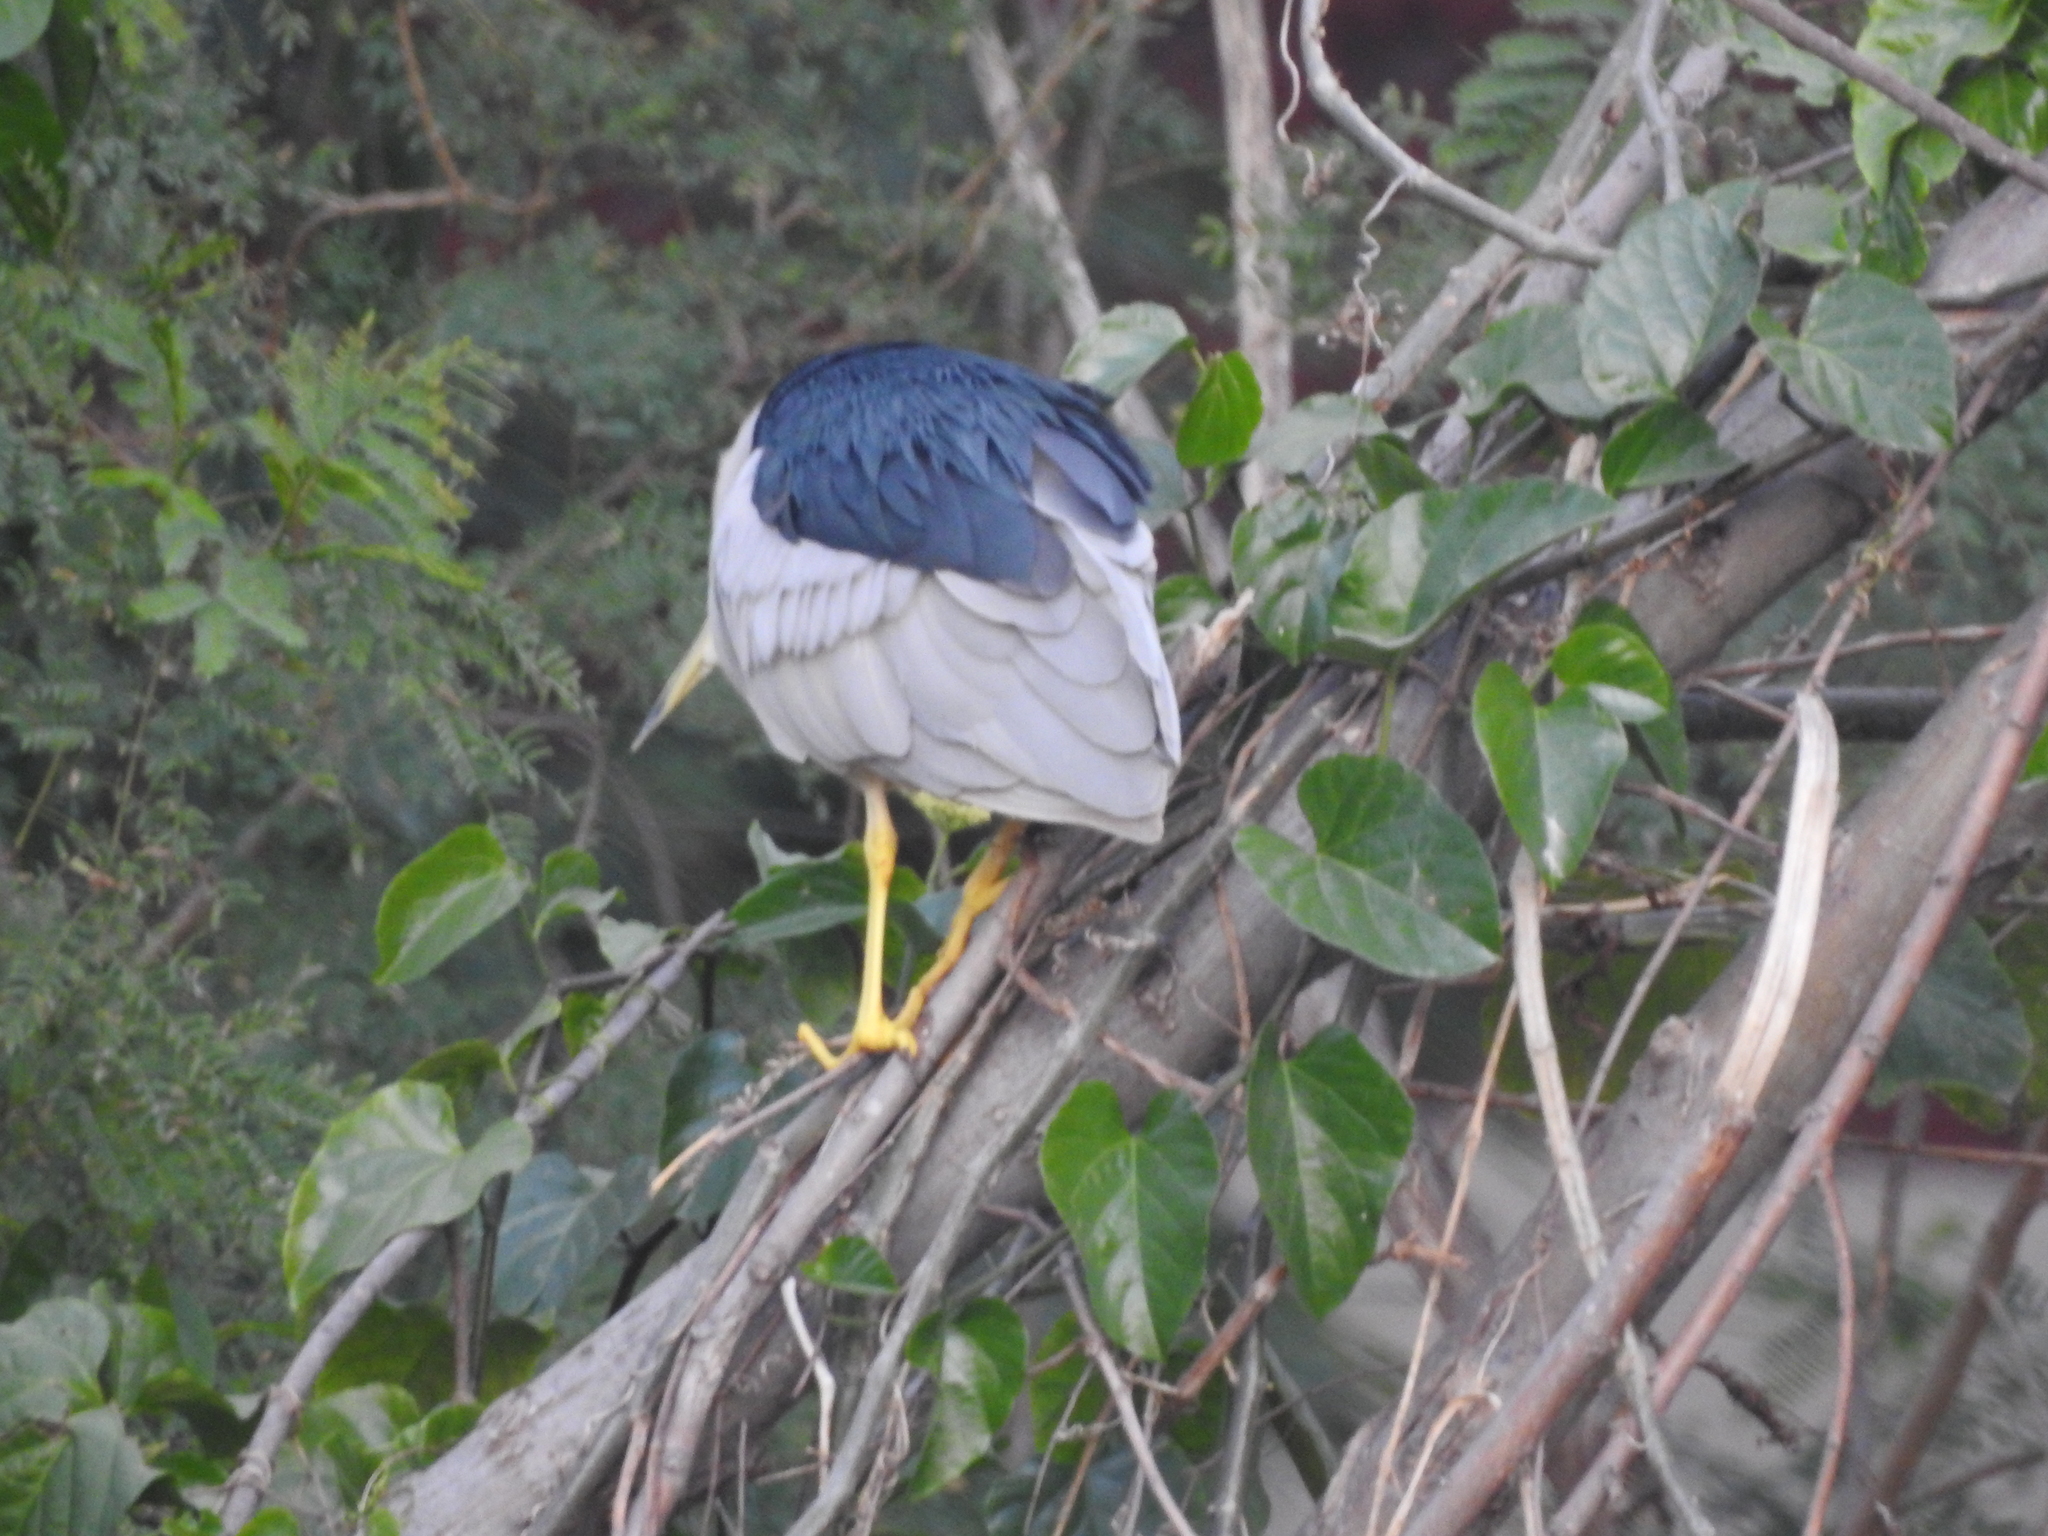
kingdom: Animalia
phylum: Chordata
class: Aves
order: Pelecaniformes
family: Ardeidae
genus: Nycticorax
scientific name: Nycticorax nycticorax
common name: Black-crowned night heron
